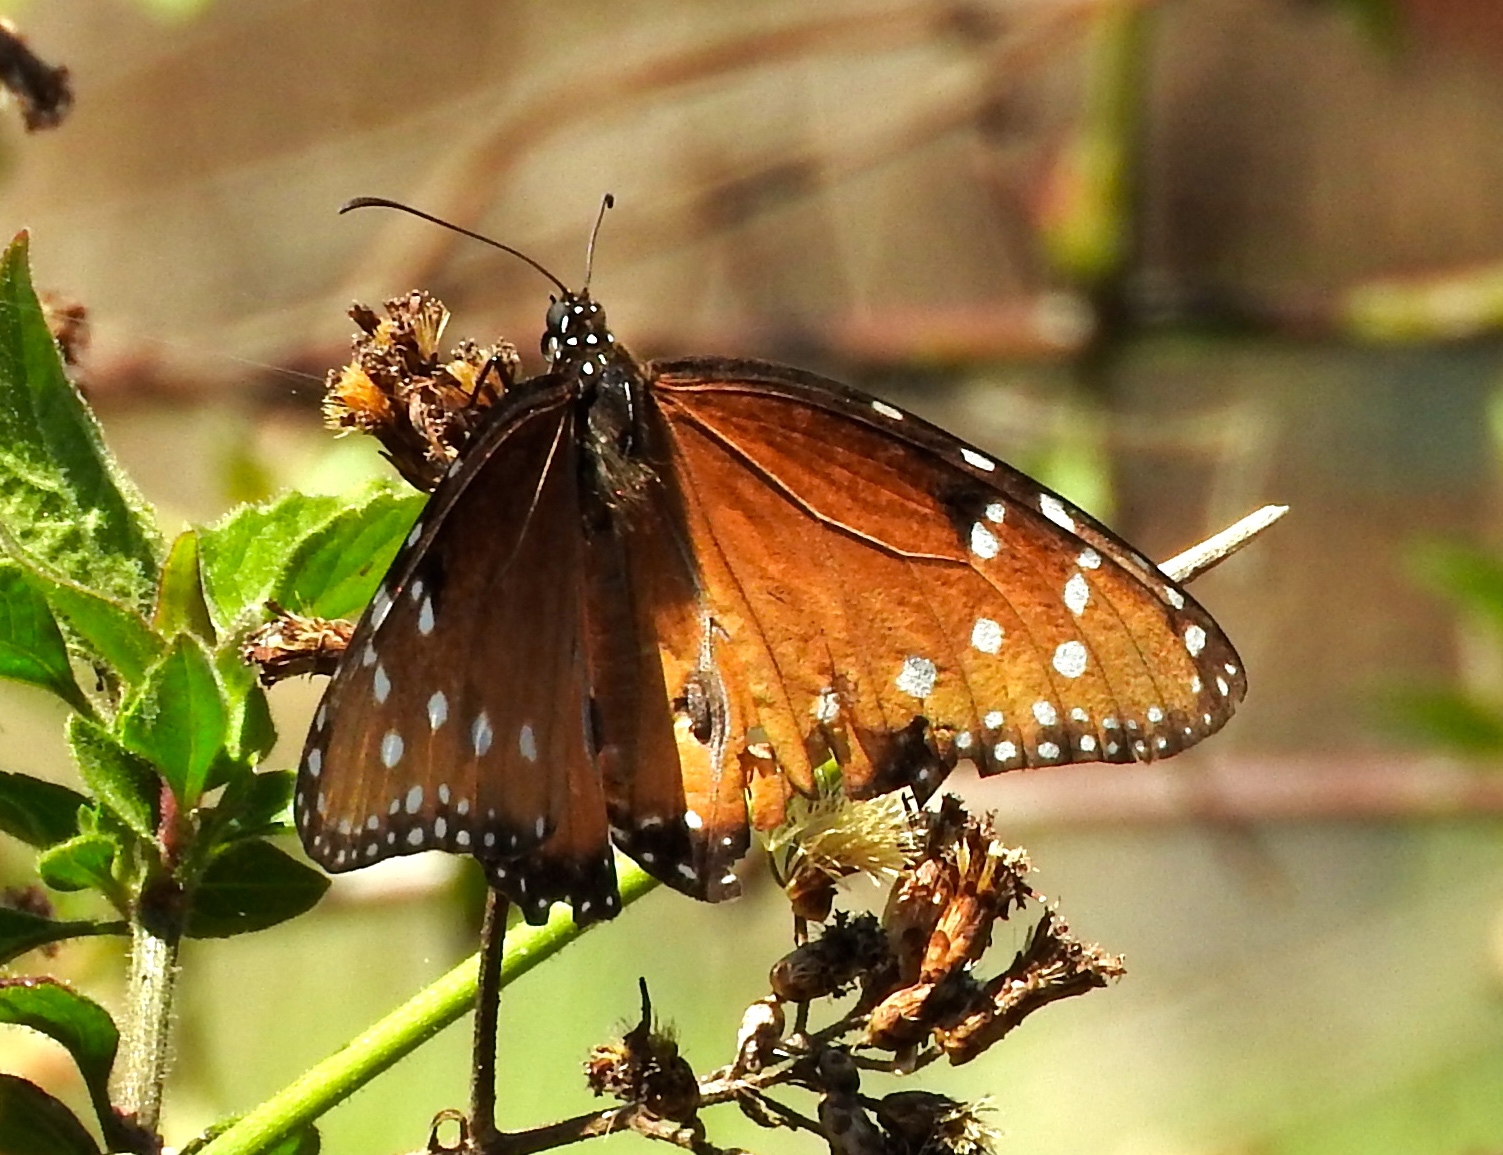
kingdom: Animalia
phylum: Arthropoda
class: Insecta
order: Lepidoptera
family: Nymphalidae
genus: Danaus
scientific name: Danaus gilippus
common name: Queen
